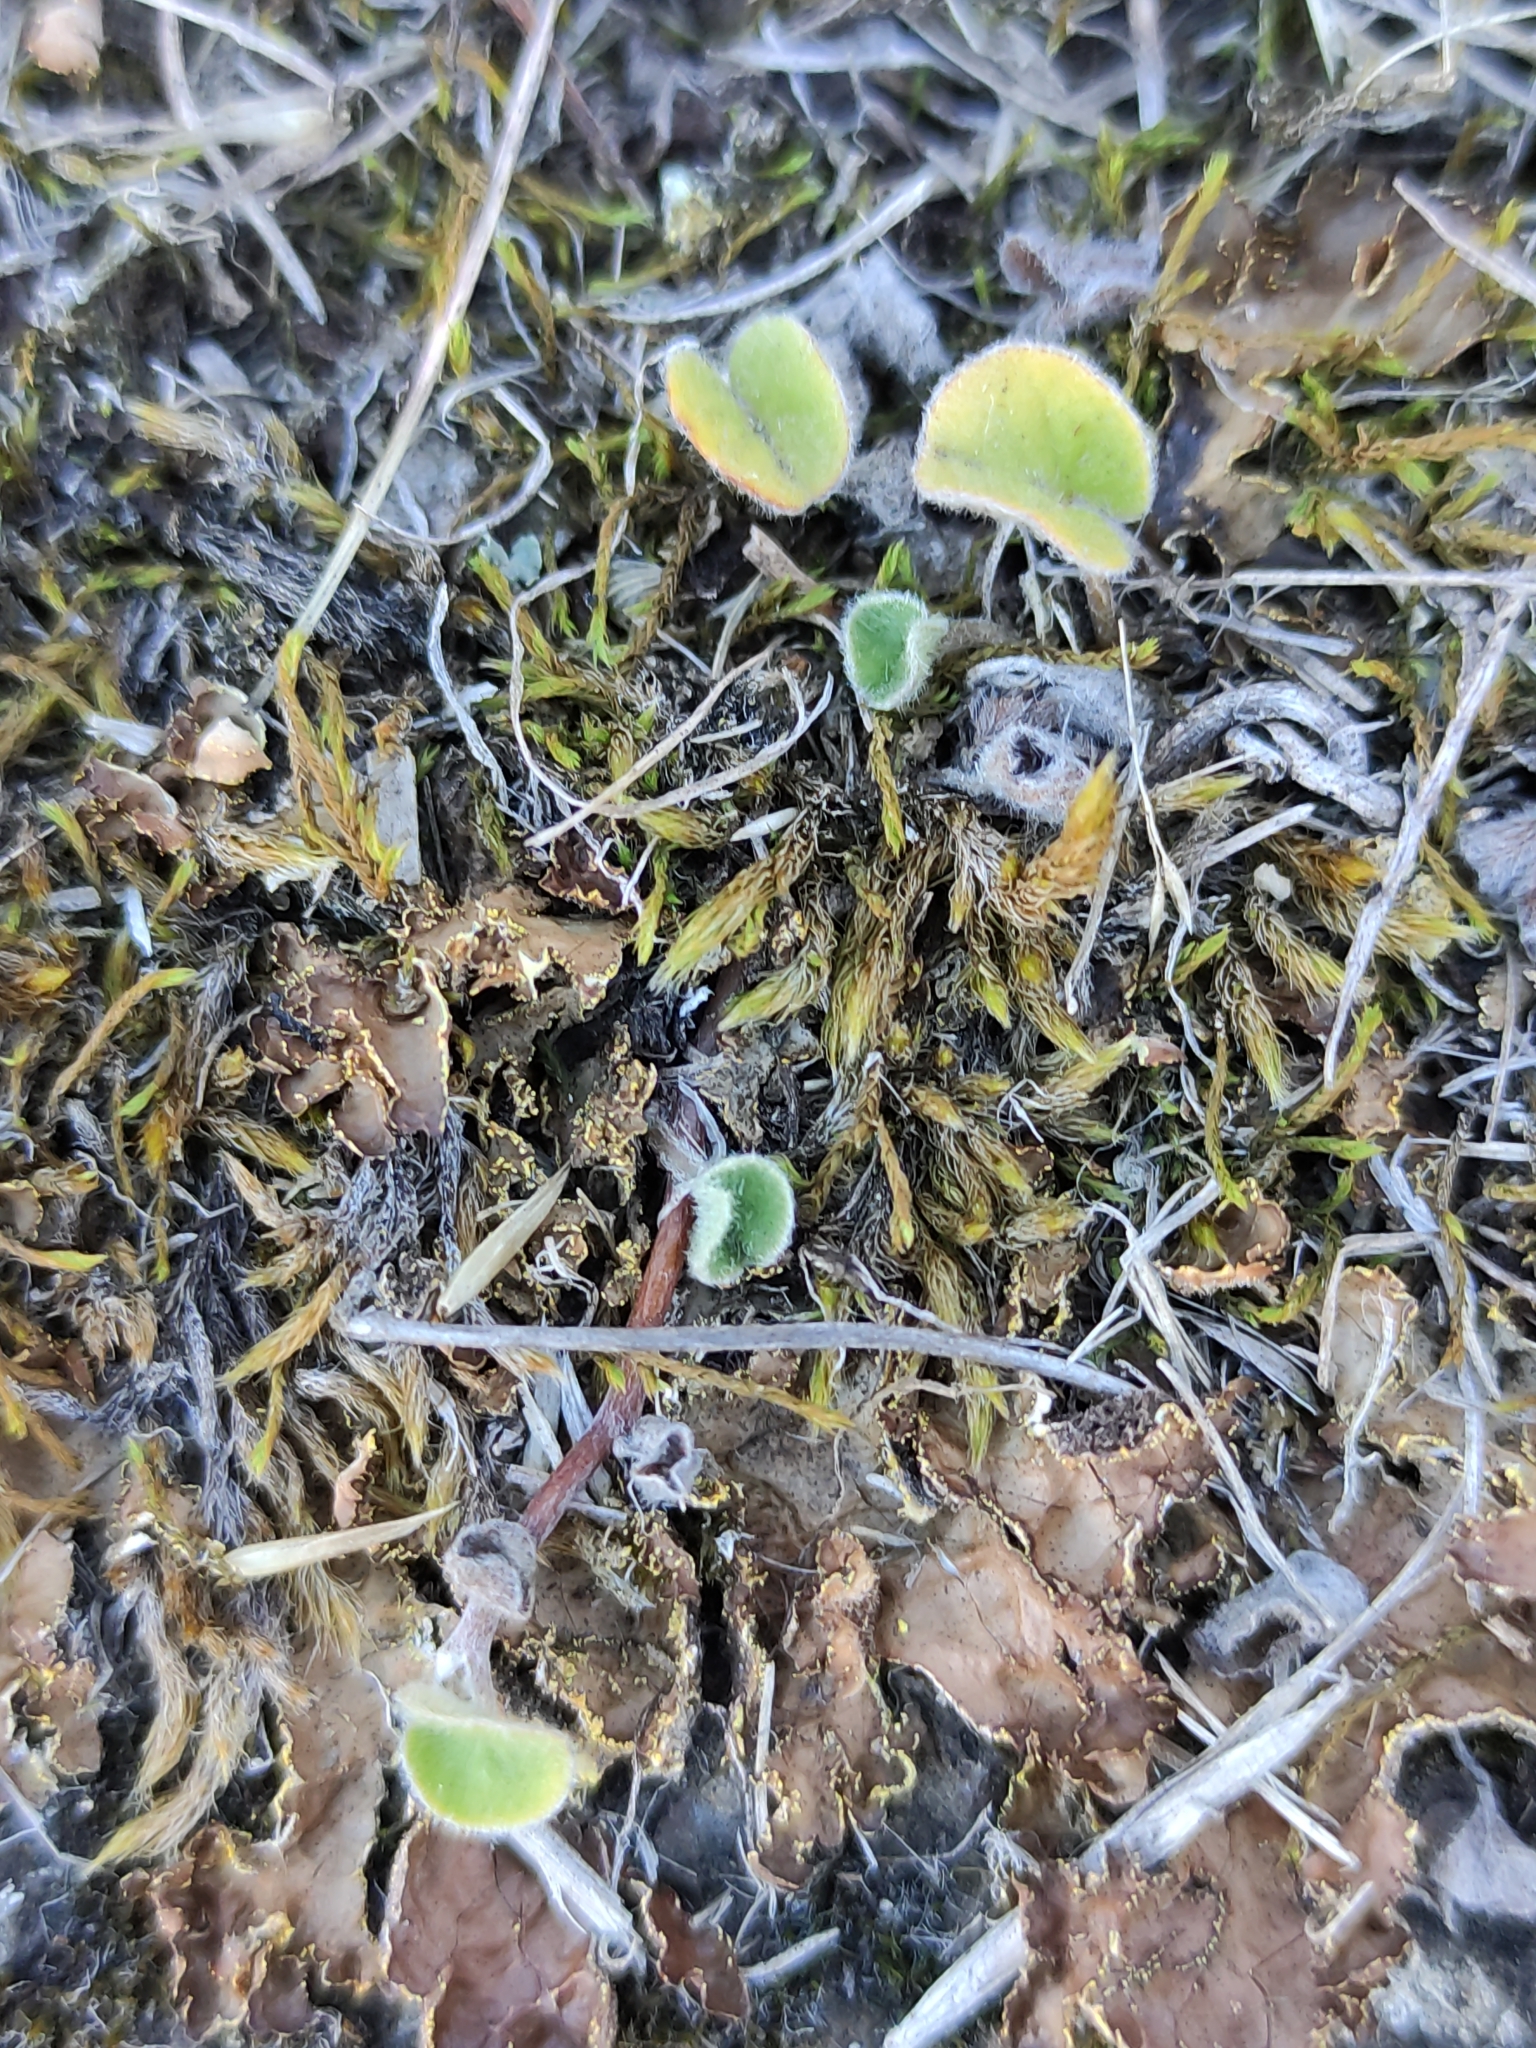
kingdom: Plantae
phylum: Tracheophyta
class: Magnoliopsida
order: Solanales
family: Convolvulaceae
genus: Dichondra
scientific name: Dichondra repens
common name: Kidneyweed
